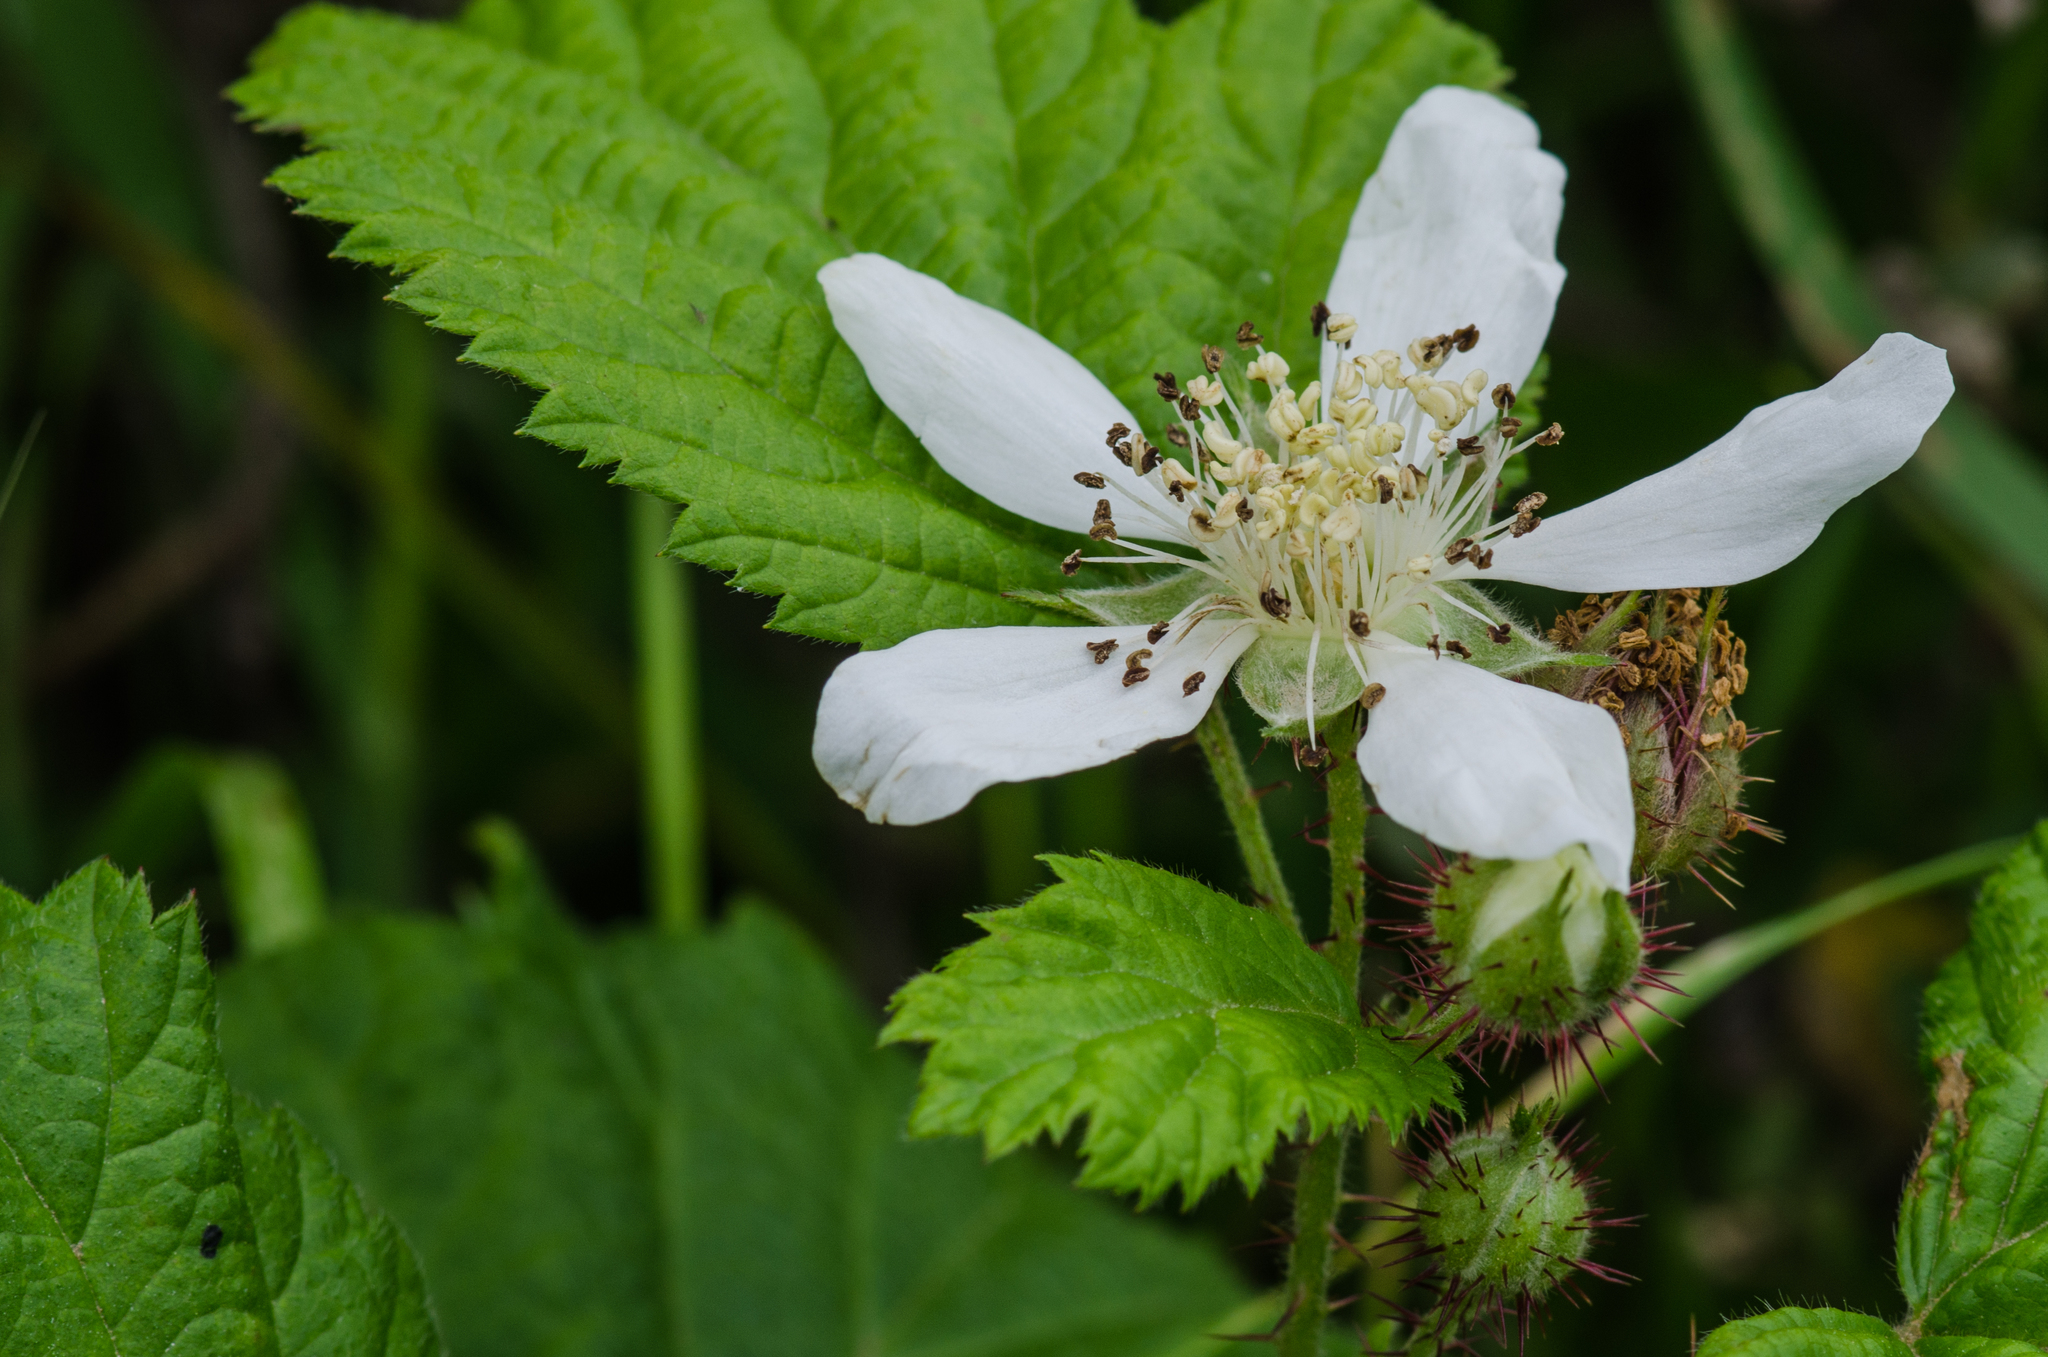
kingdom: Plantae
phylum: Tracheophyta
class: Magnoliopsida
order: Rosales
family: Rosaceae
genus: Rubus
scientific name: Rubus ursinus
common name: Pacific blackberry
